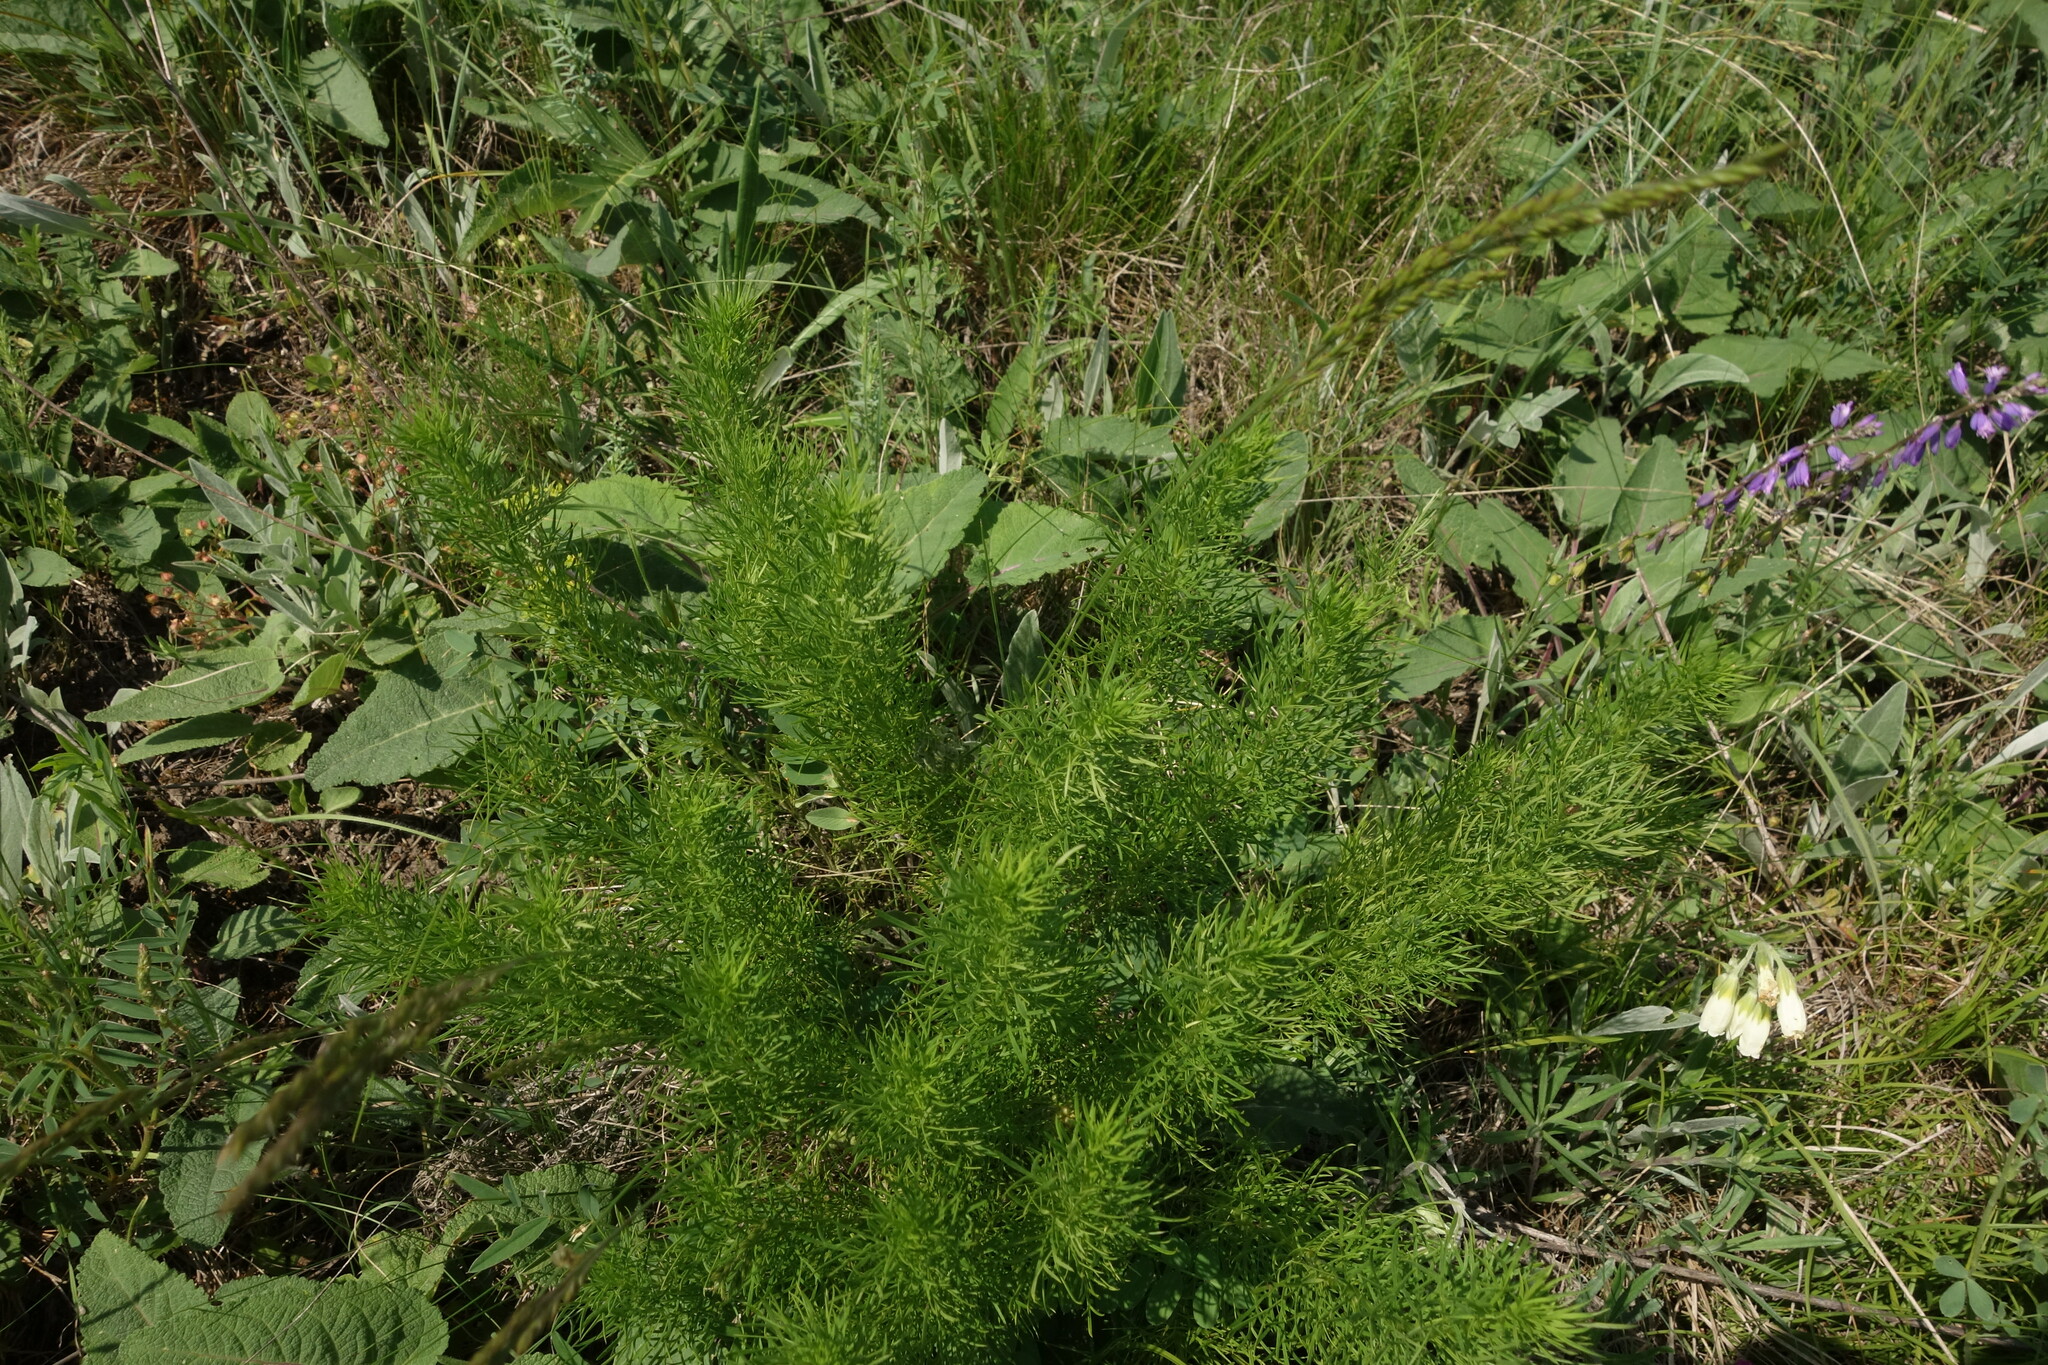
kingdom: Plantae
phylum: Tracheophyta
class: Magnoliopsida
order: Ranunculales
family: Ranunculaceae
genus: Adonis
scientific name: Adonis vernalis
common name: Yellow pheasants-eye
